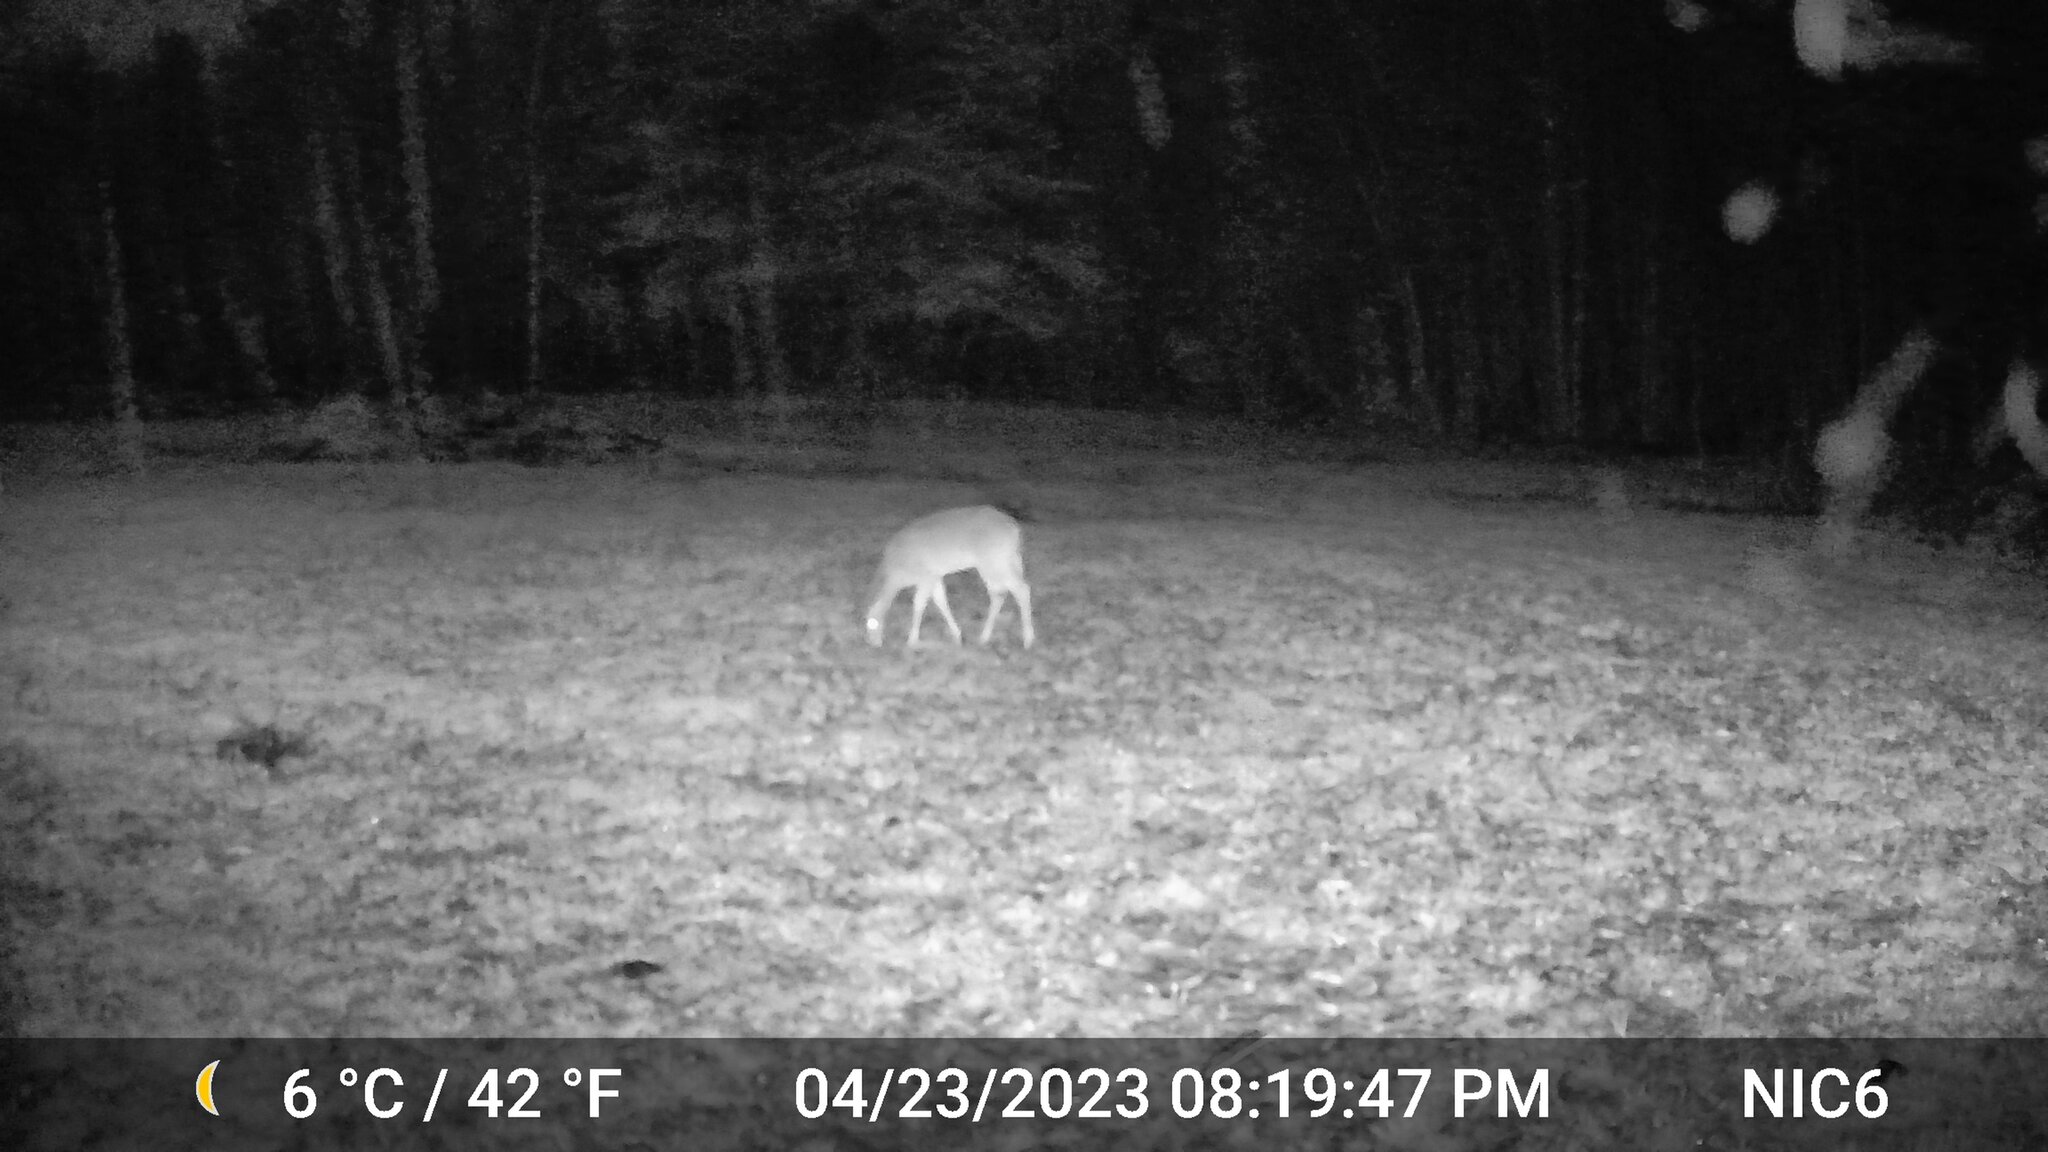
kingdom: Animalia
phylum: Chordata
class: Mammalia
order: Artiodactyla
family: Cervidae
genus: Odocoileus
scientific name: Odocoileus virginianus
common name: White-tailed deer
